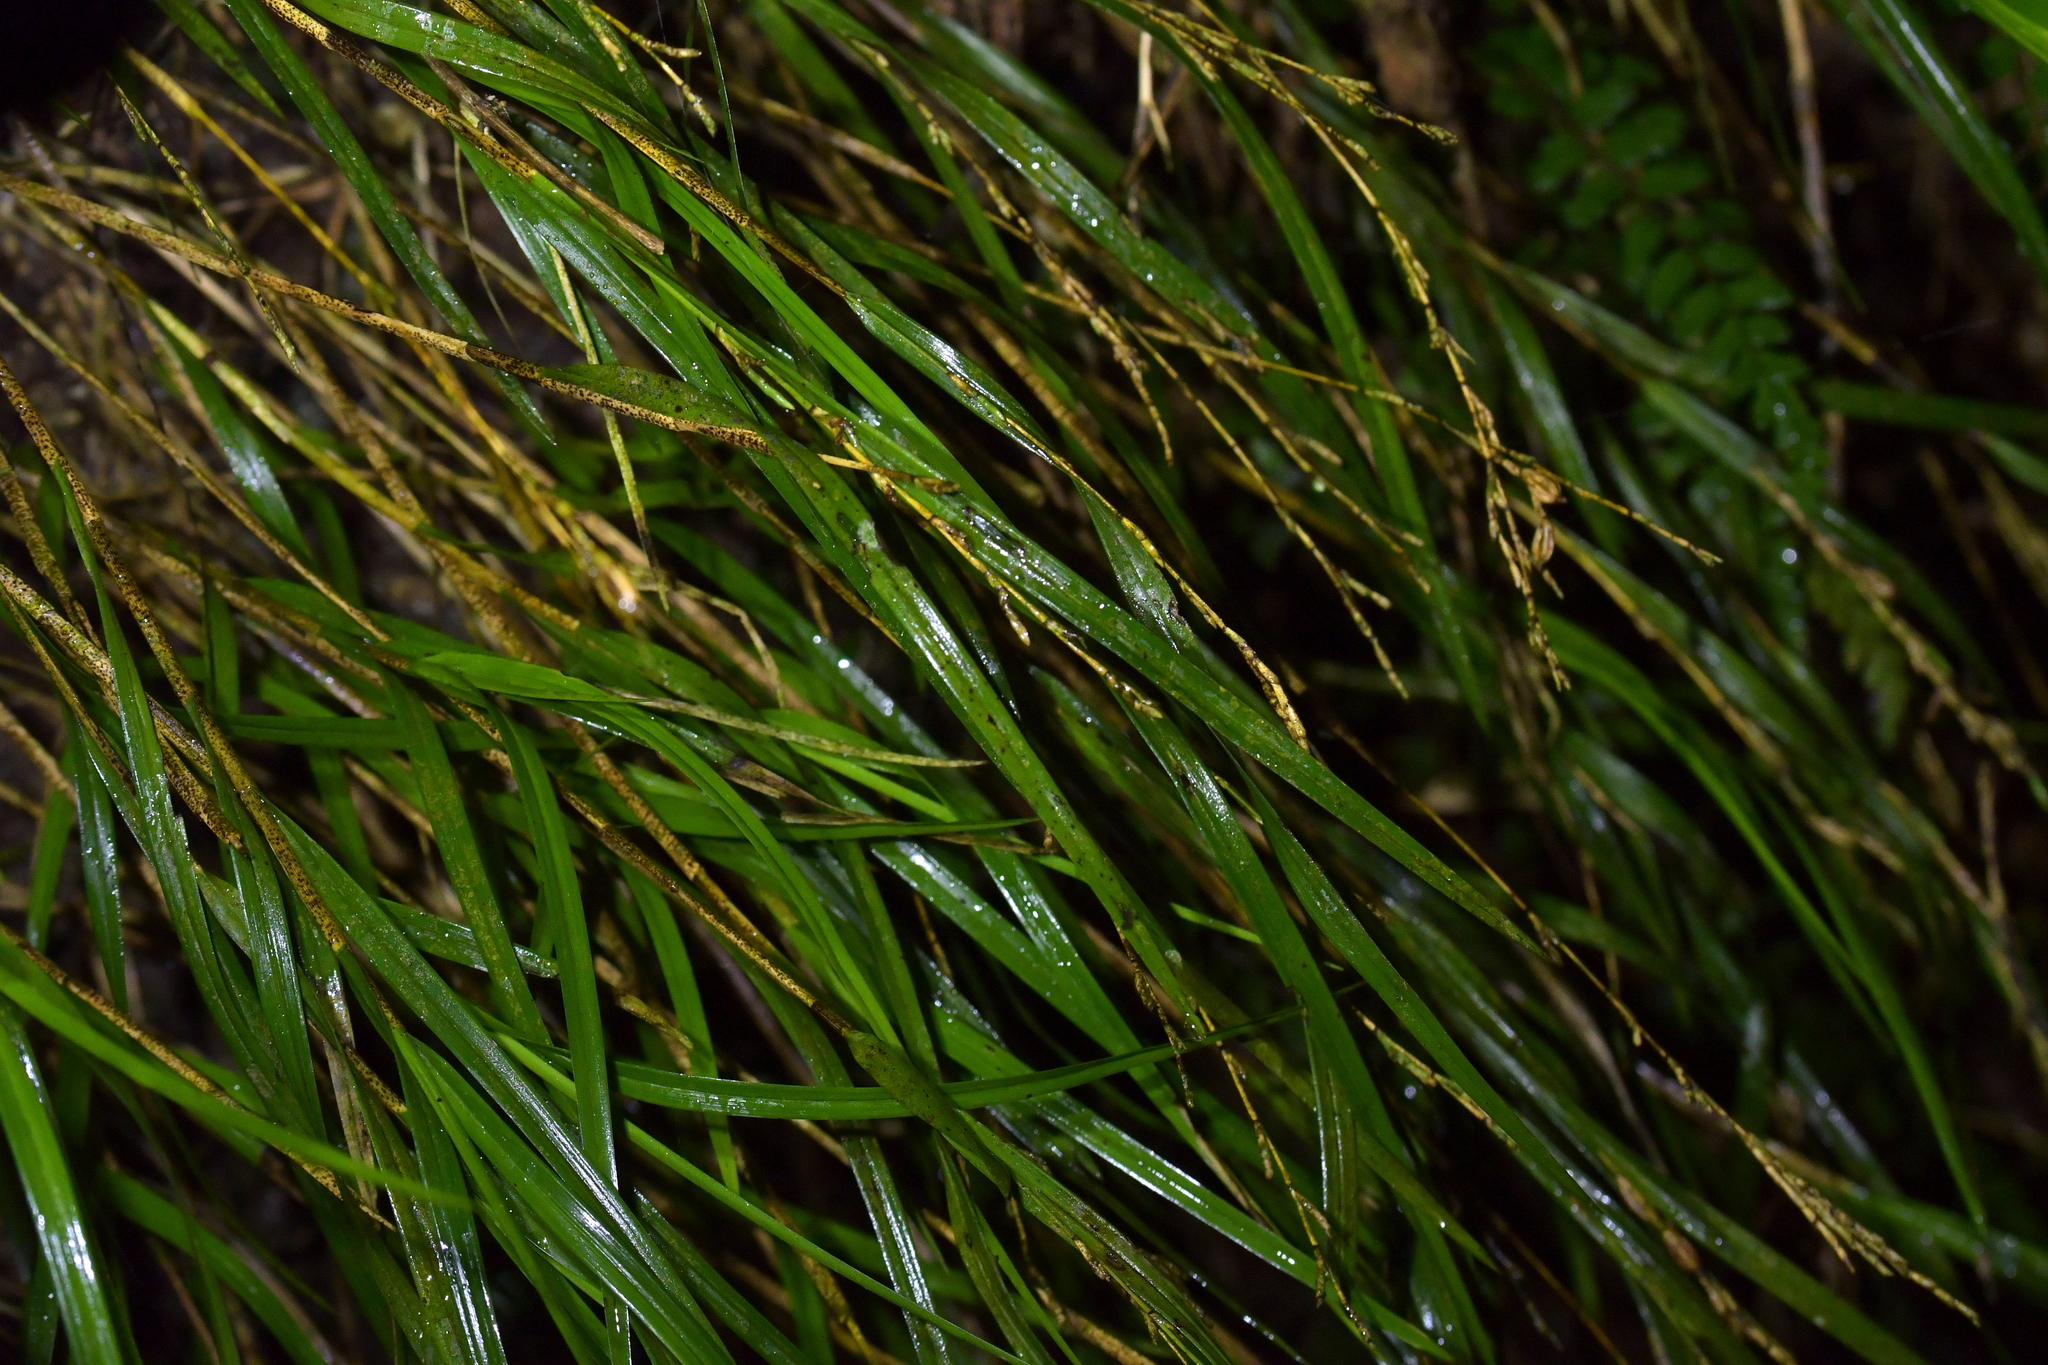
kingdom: Plantae
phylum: Tracheophyta
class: Liliopsida
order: Asparagales
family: Orchidaceae
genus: Earina
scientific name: Earina mucronata
